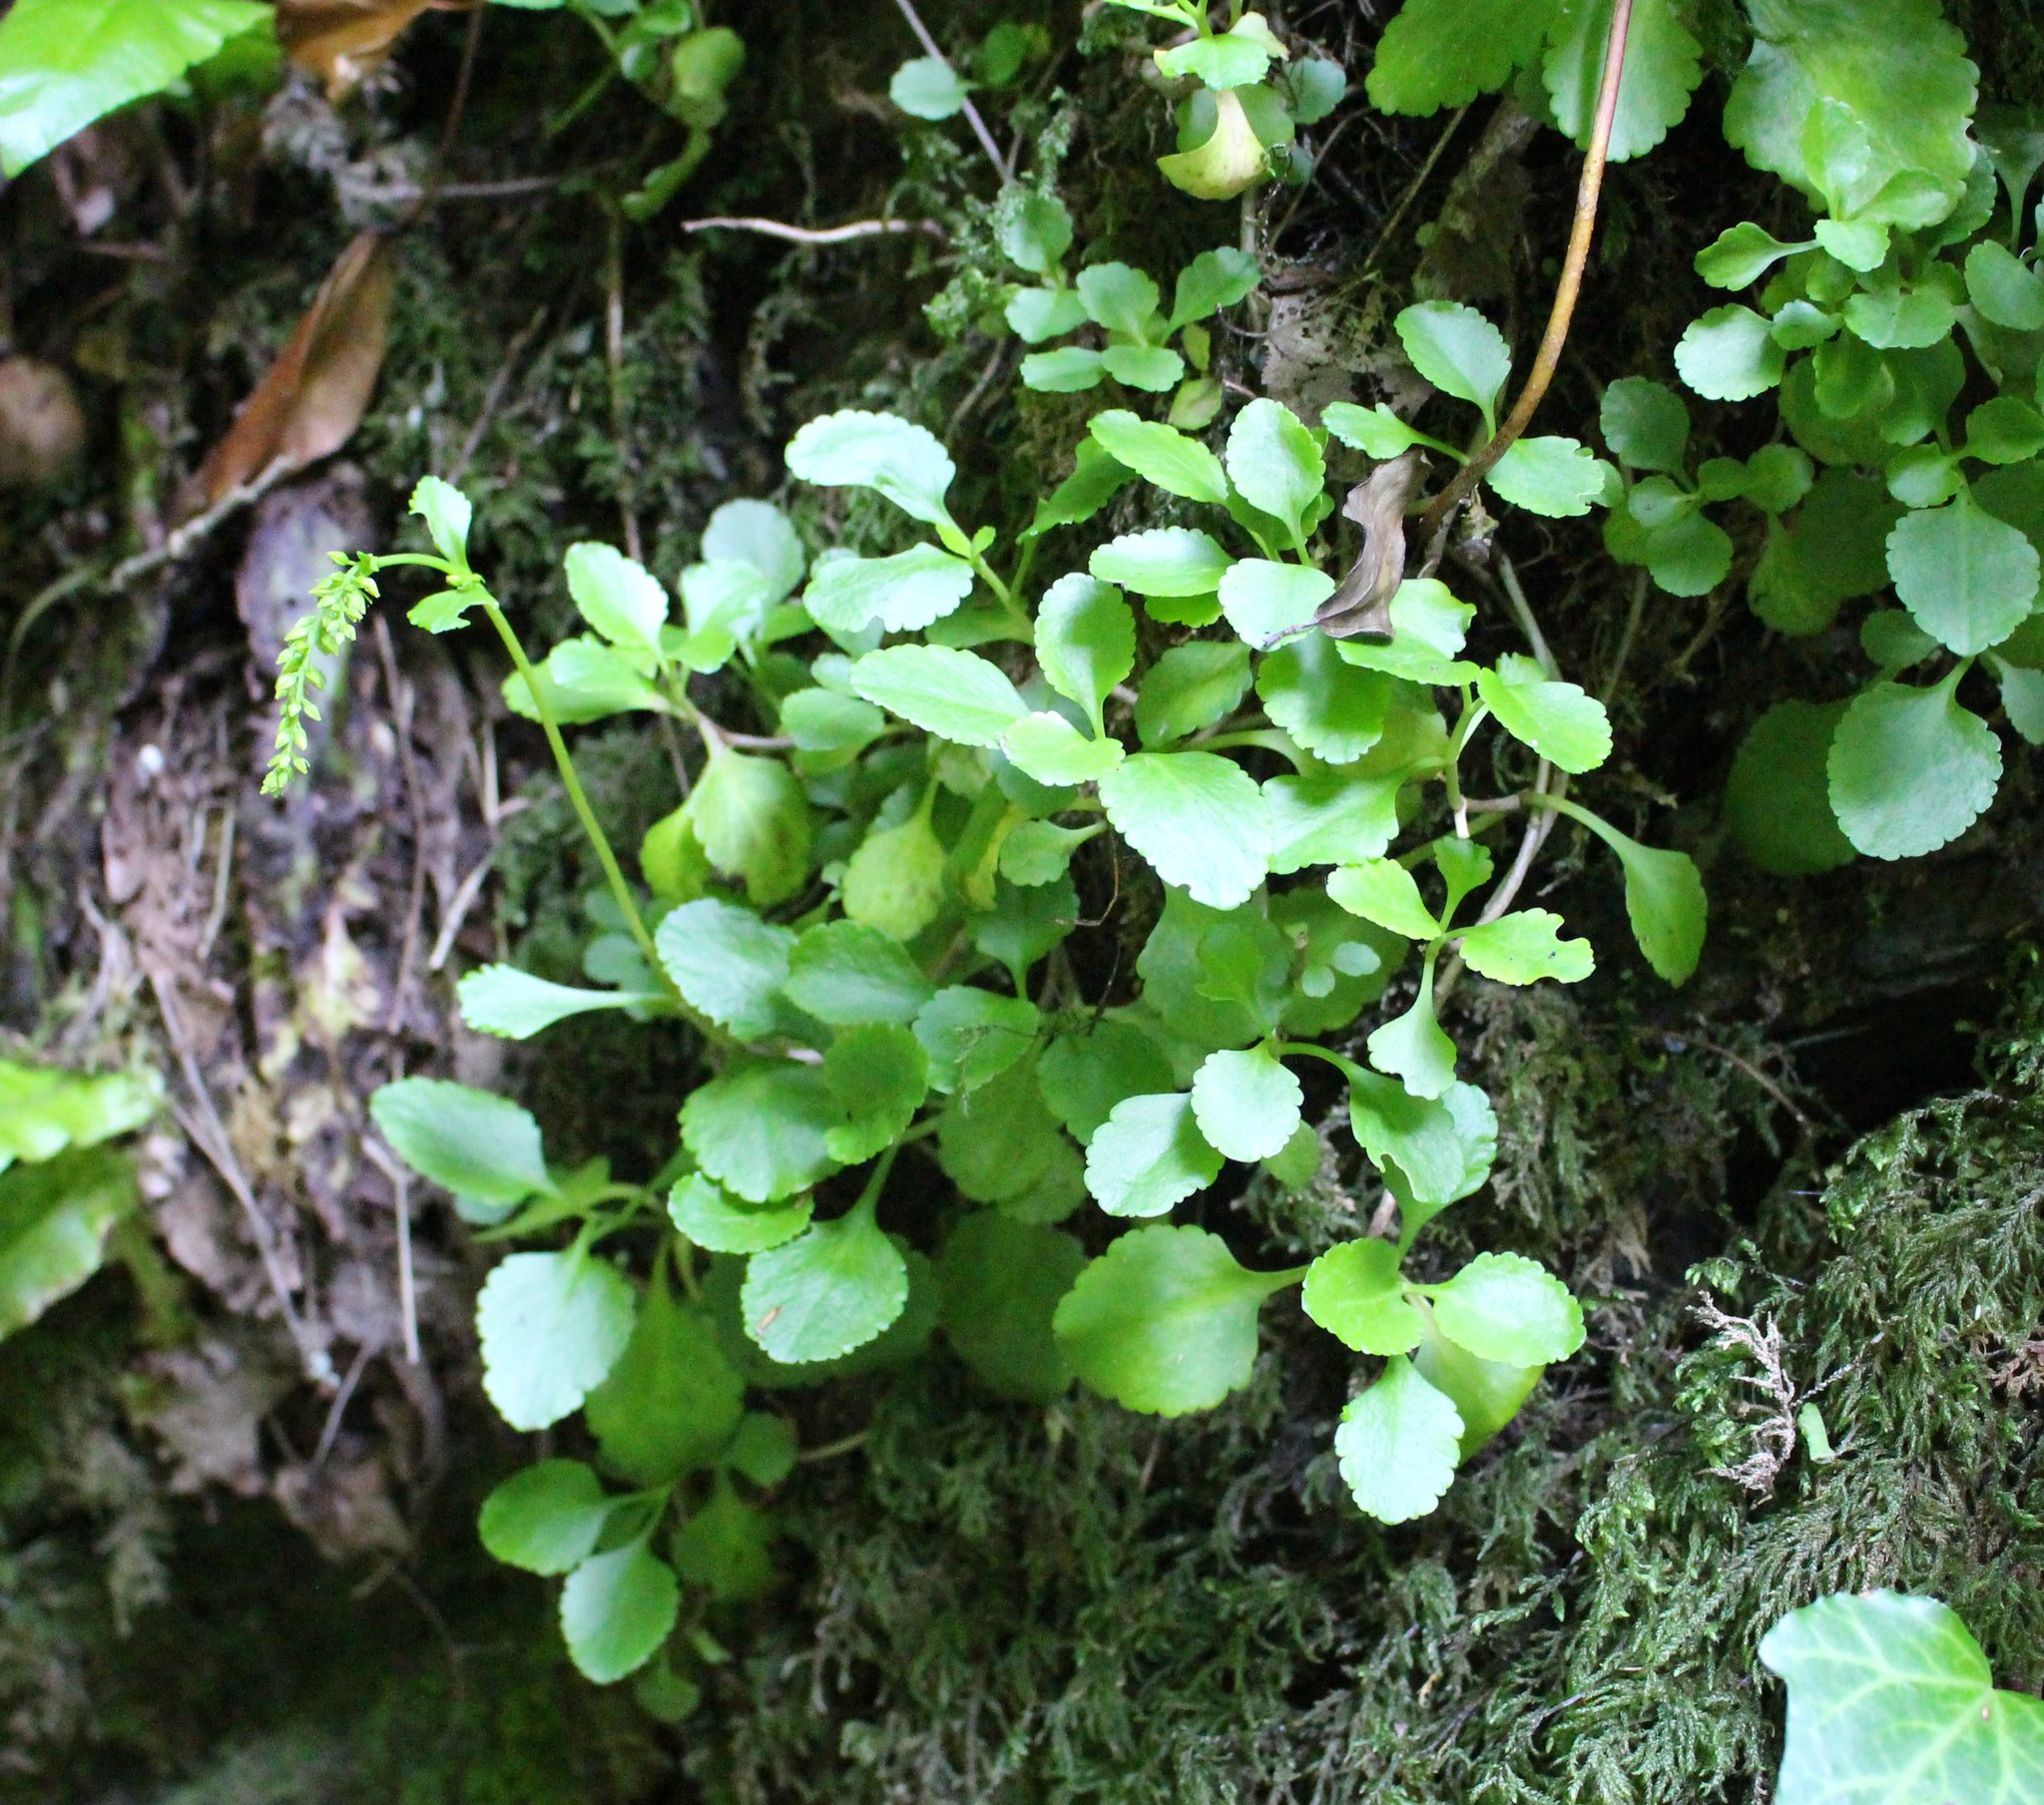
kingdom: Plantae
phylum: Tracheophyta
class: Magnoliopsida
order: Saxifragales
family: Crassulaceae
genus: Umbilicus
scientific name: Umbilicus oppositifolius
